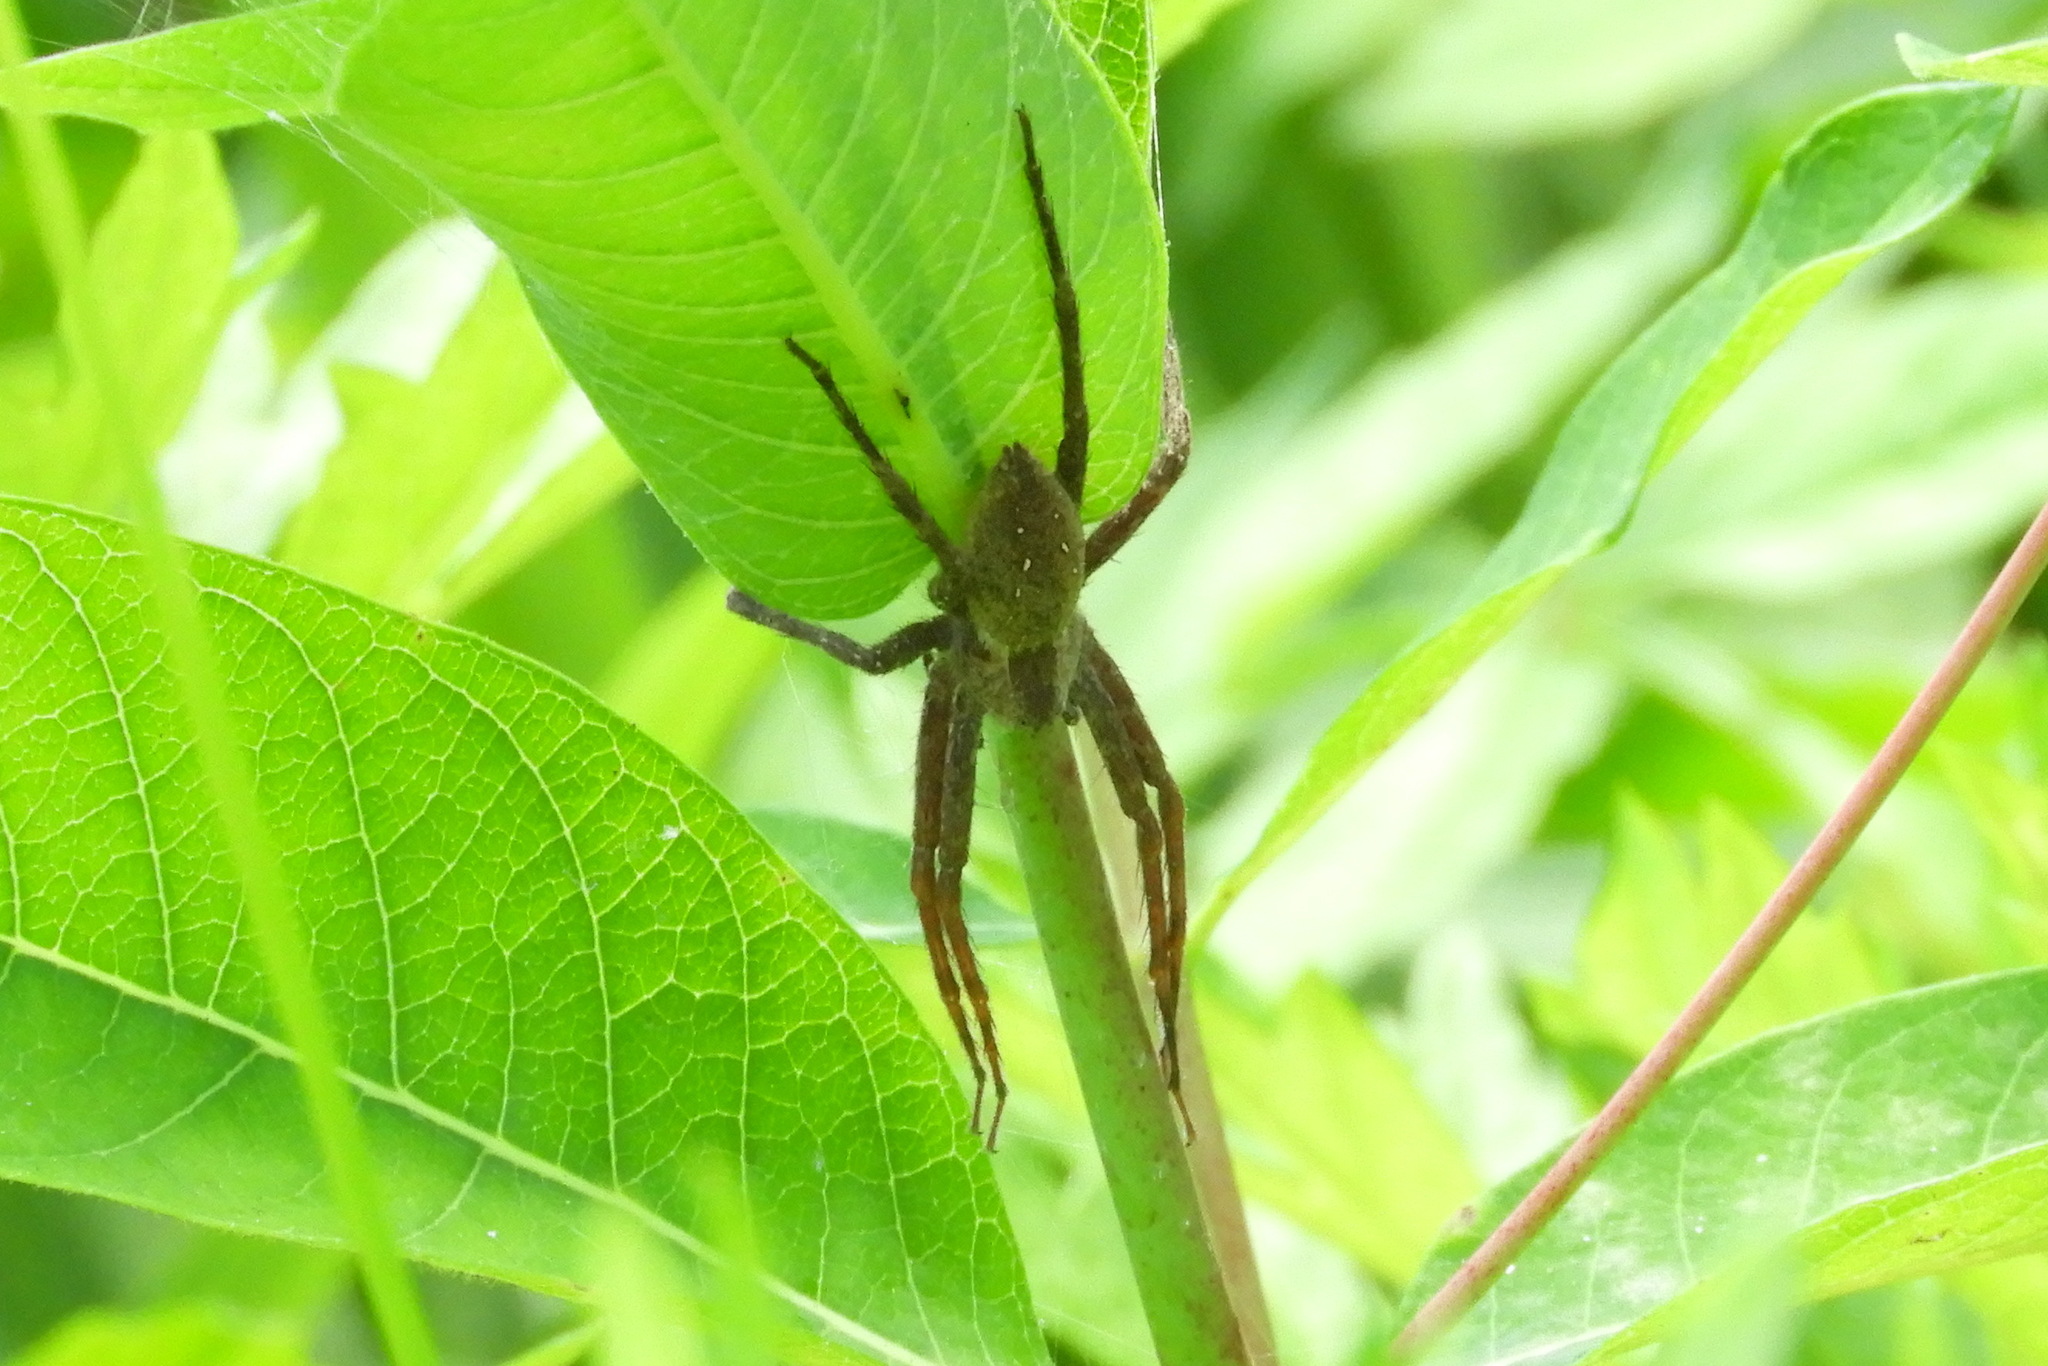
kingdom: Animalia
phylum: Arthropoda
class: Arachnida
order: Araneae
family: Pisauridae
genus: Pisaurina
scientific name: Pisaurina mira
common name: American nursery web spider
